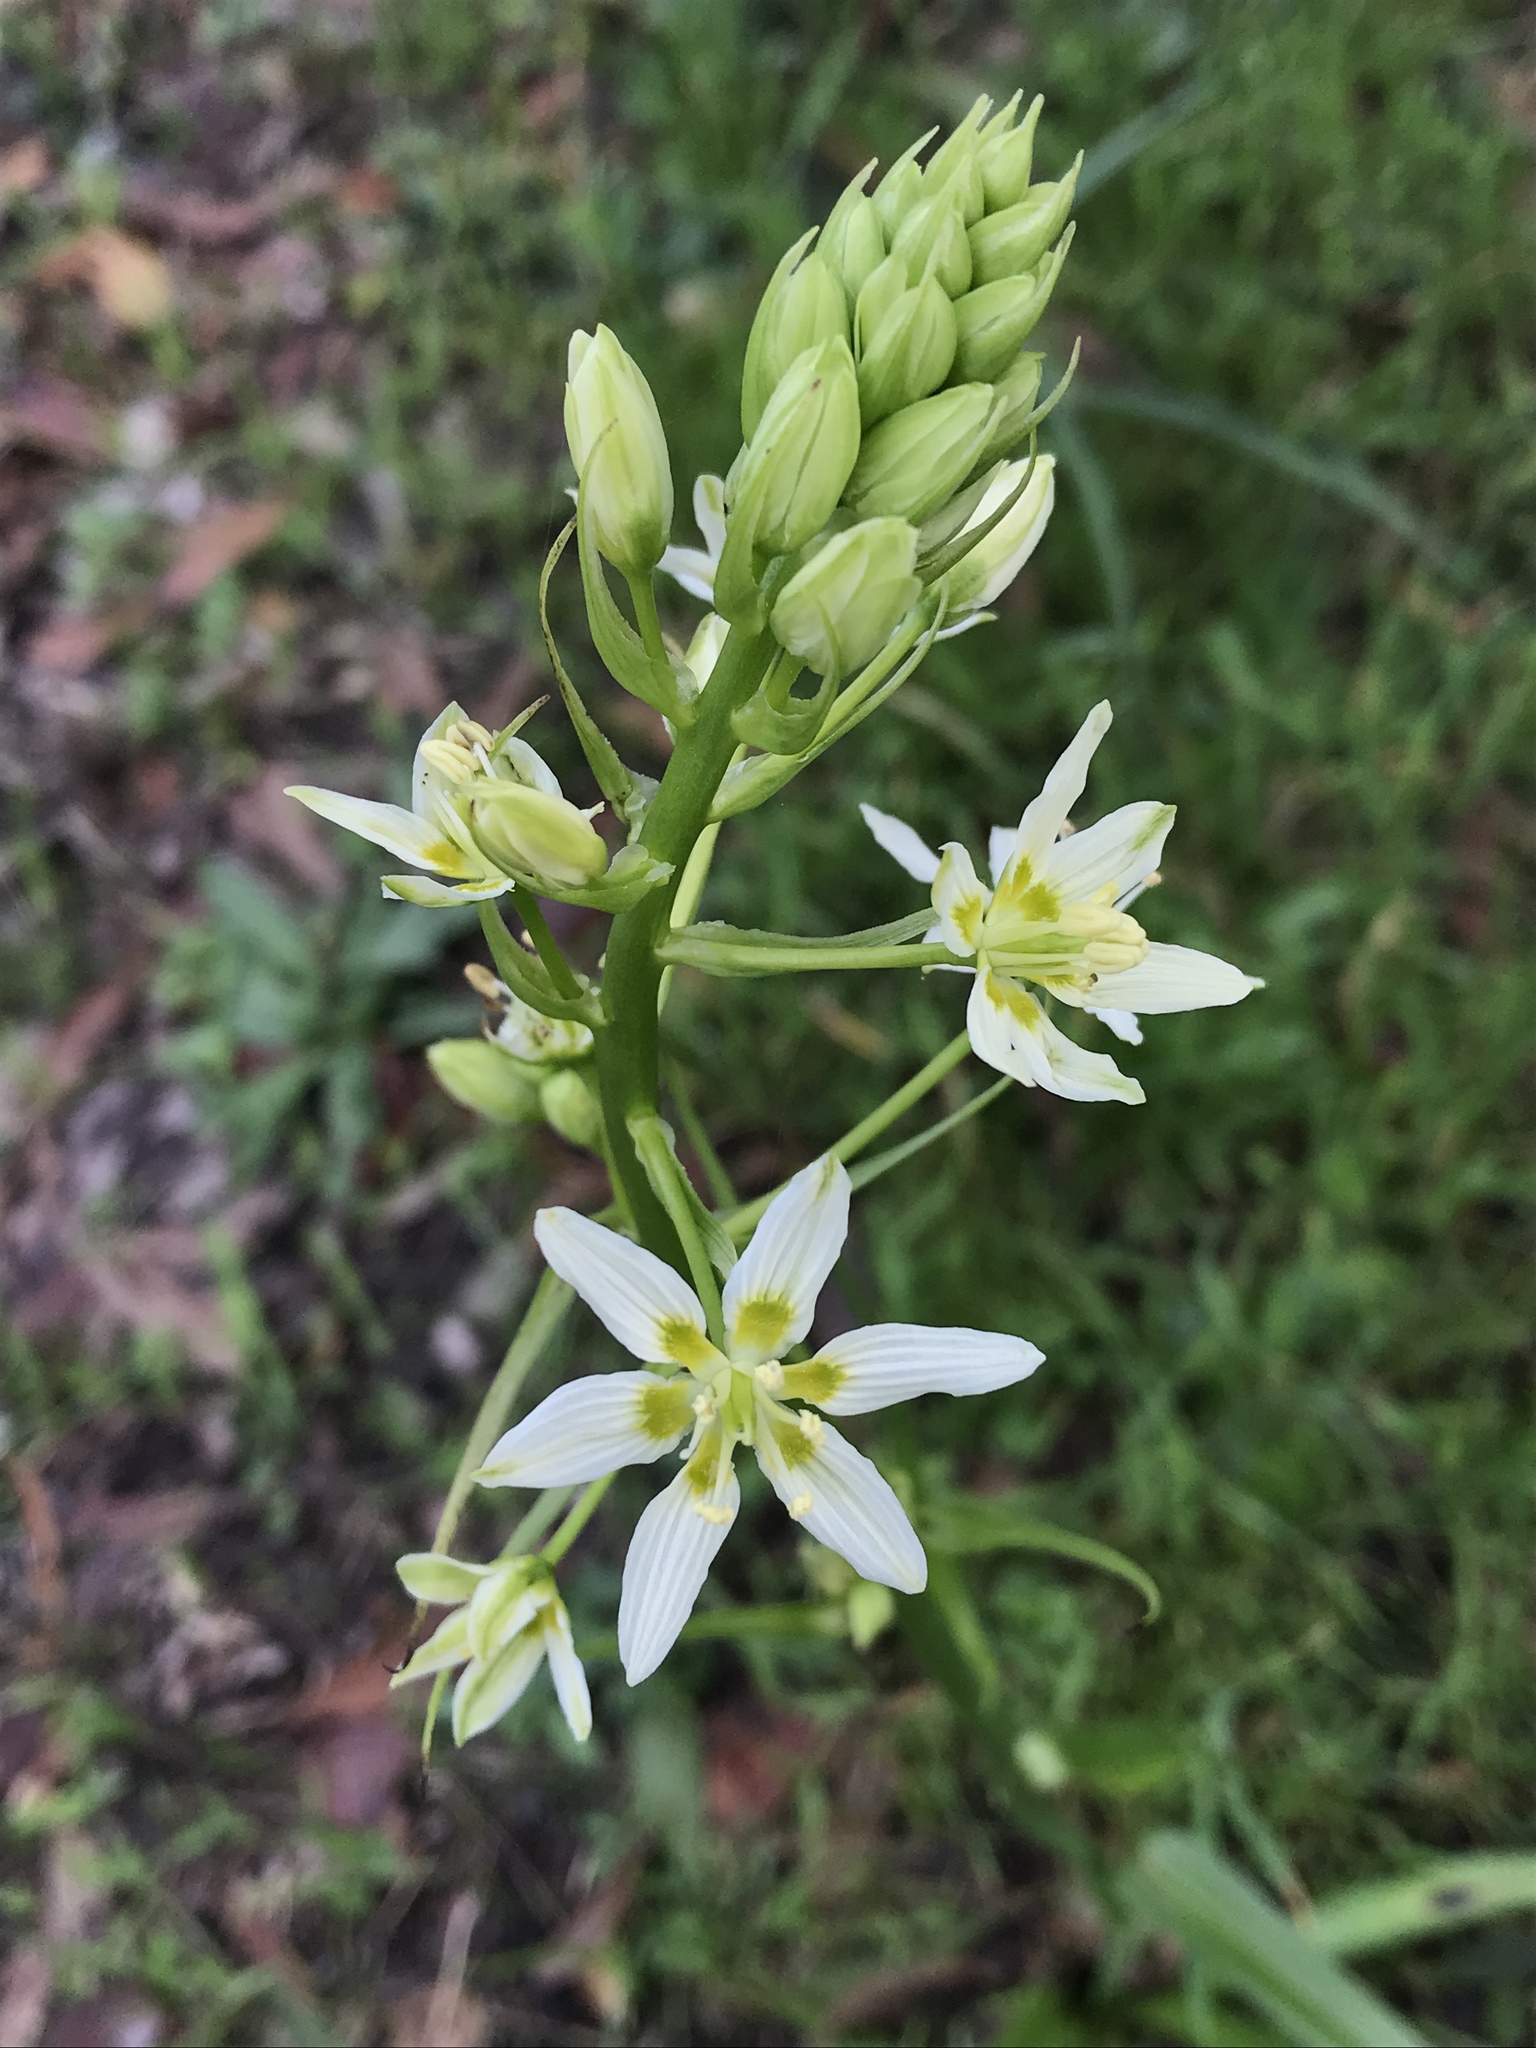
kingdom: Plantae
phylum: Tracheophyta
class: Liliopsida
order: Liliales
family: Melanthiaceae
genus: Toxicoscordion
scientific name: Toxicoscordion fremontii
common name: Fremont's death camas
